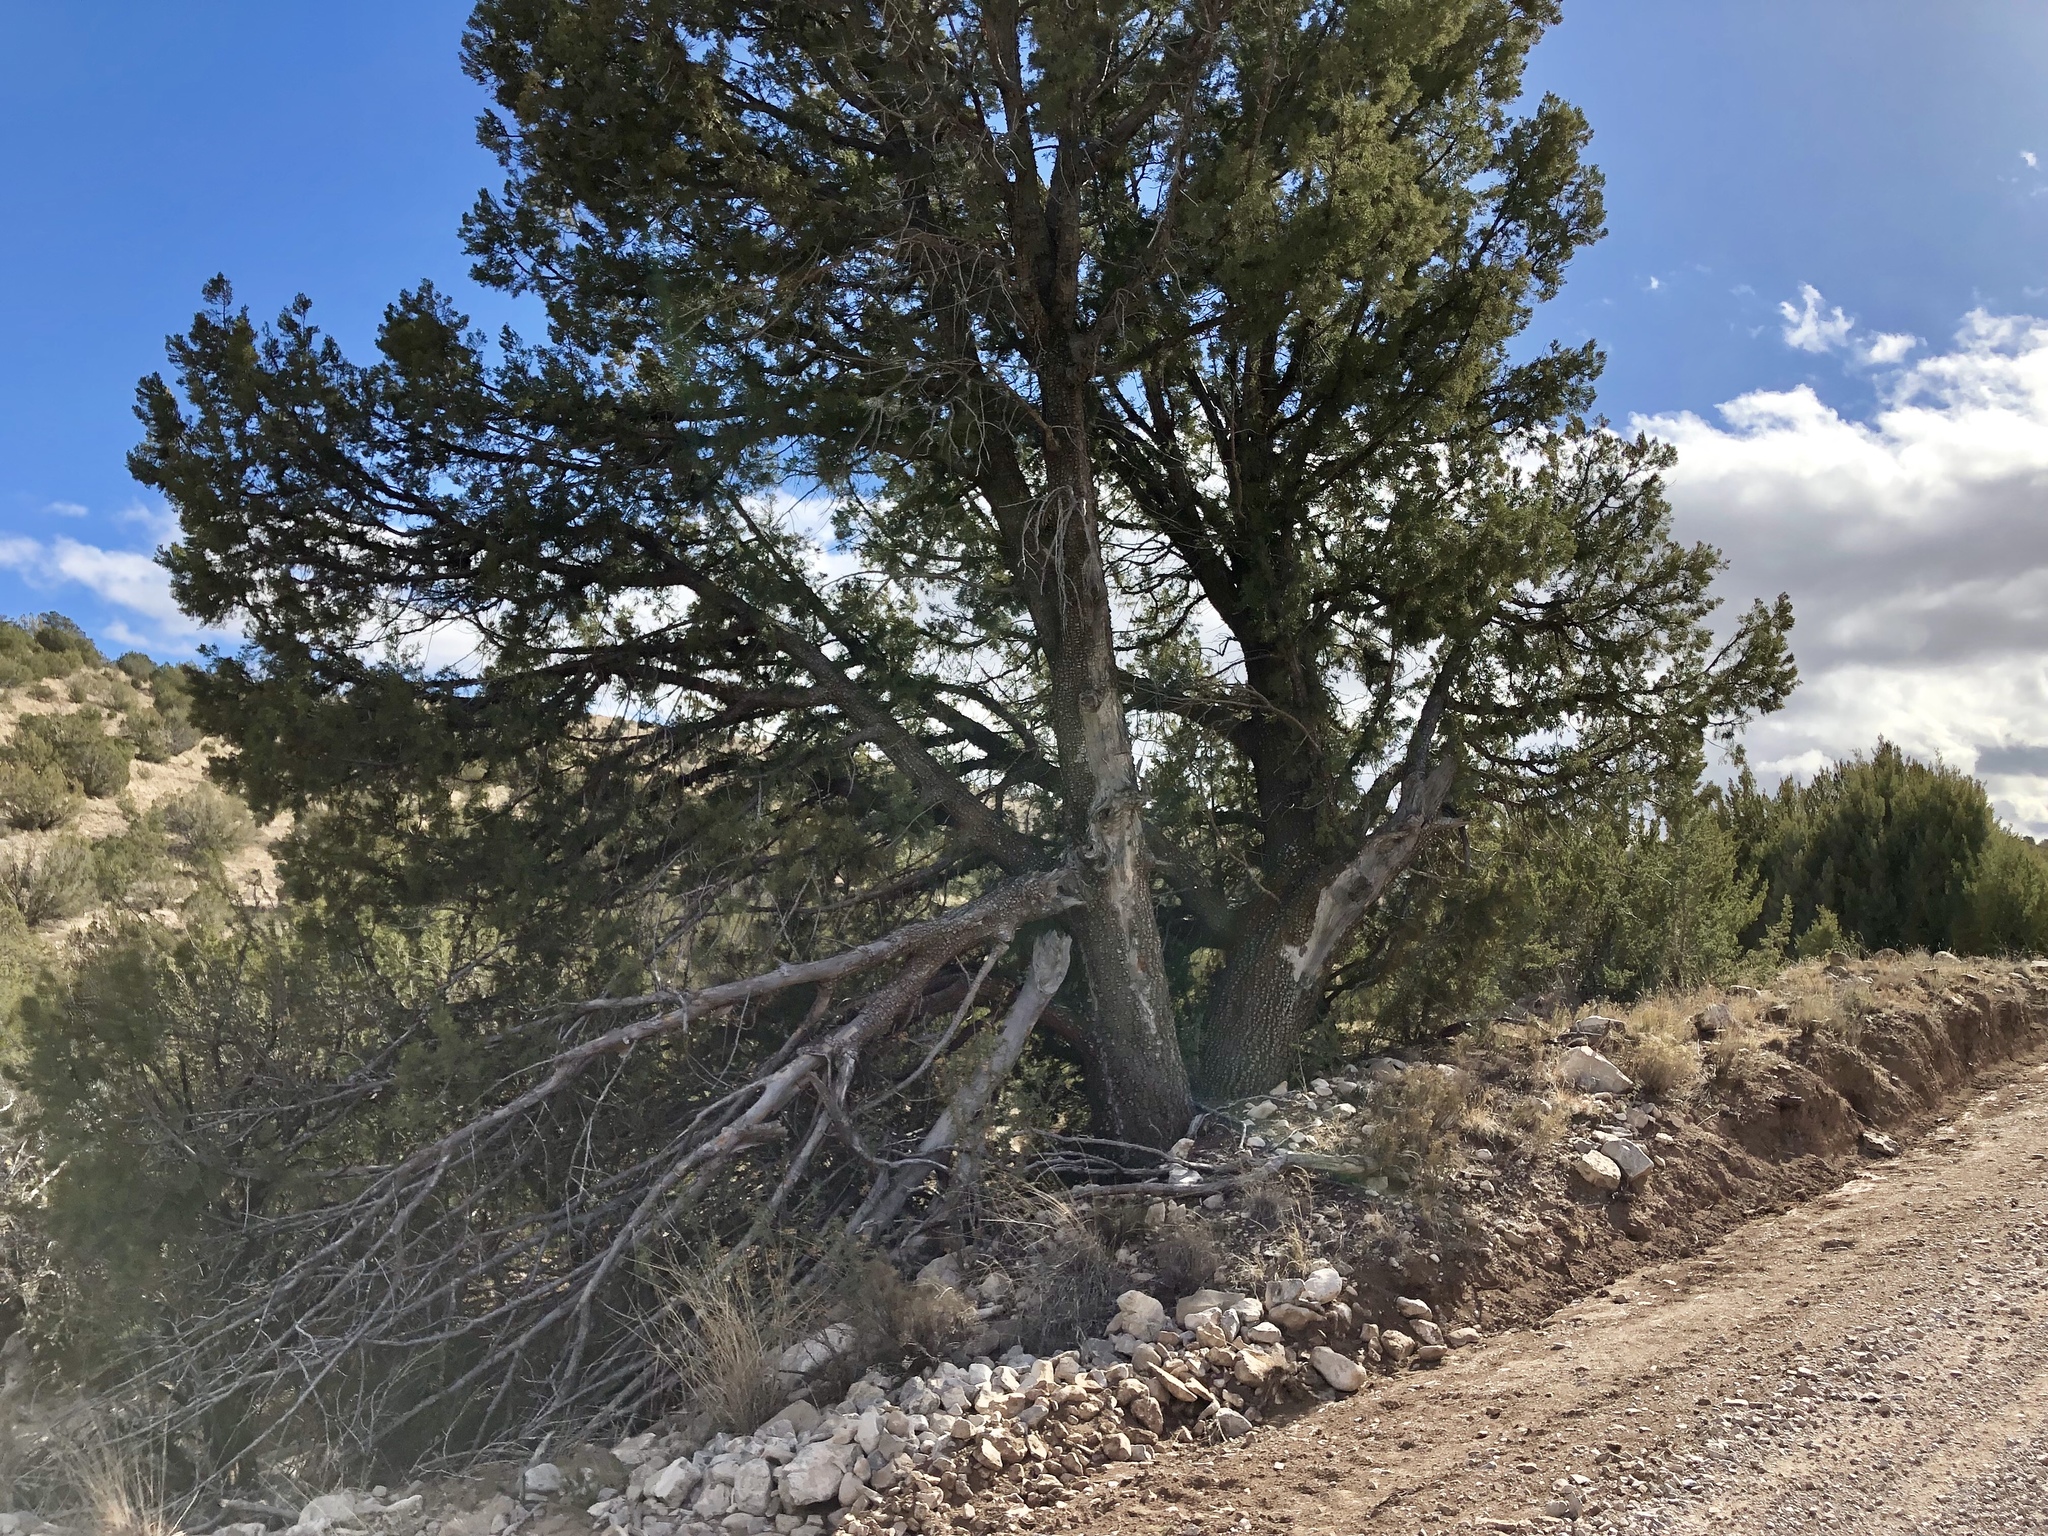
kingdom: Plantae
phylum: Tracheophyta
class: Pinopsida
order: Pinales
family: Cupressaceae
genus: Juniperus
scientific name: Juniperus deppeana
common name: Alligator juniper
